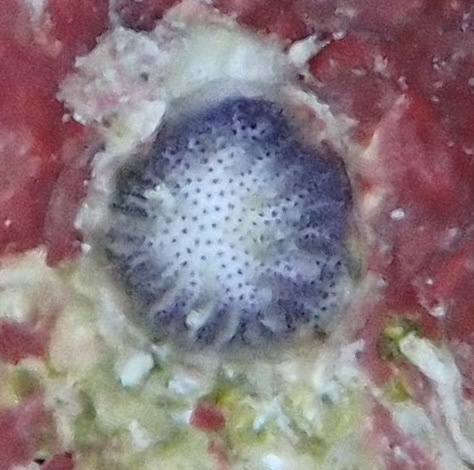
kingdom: Animalia
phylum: Bryozoa
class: Stenolaemata
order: Cyclostomatida
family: Lichenoporidae
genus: Patinella
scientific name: Patinella radiata
